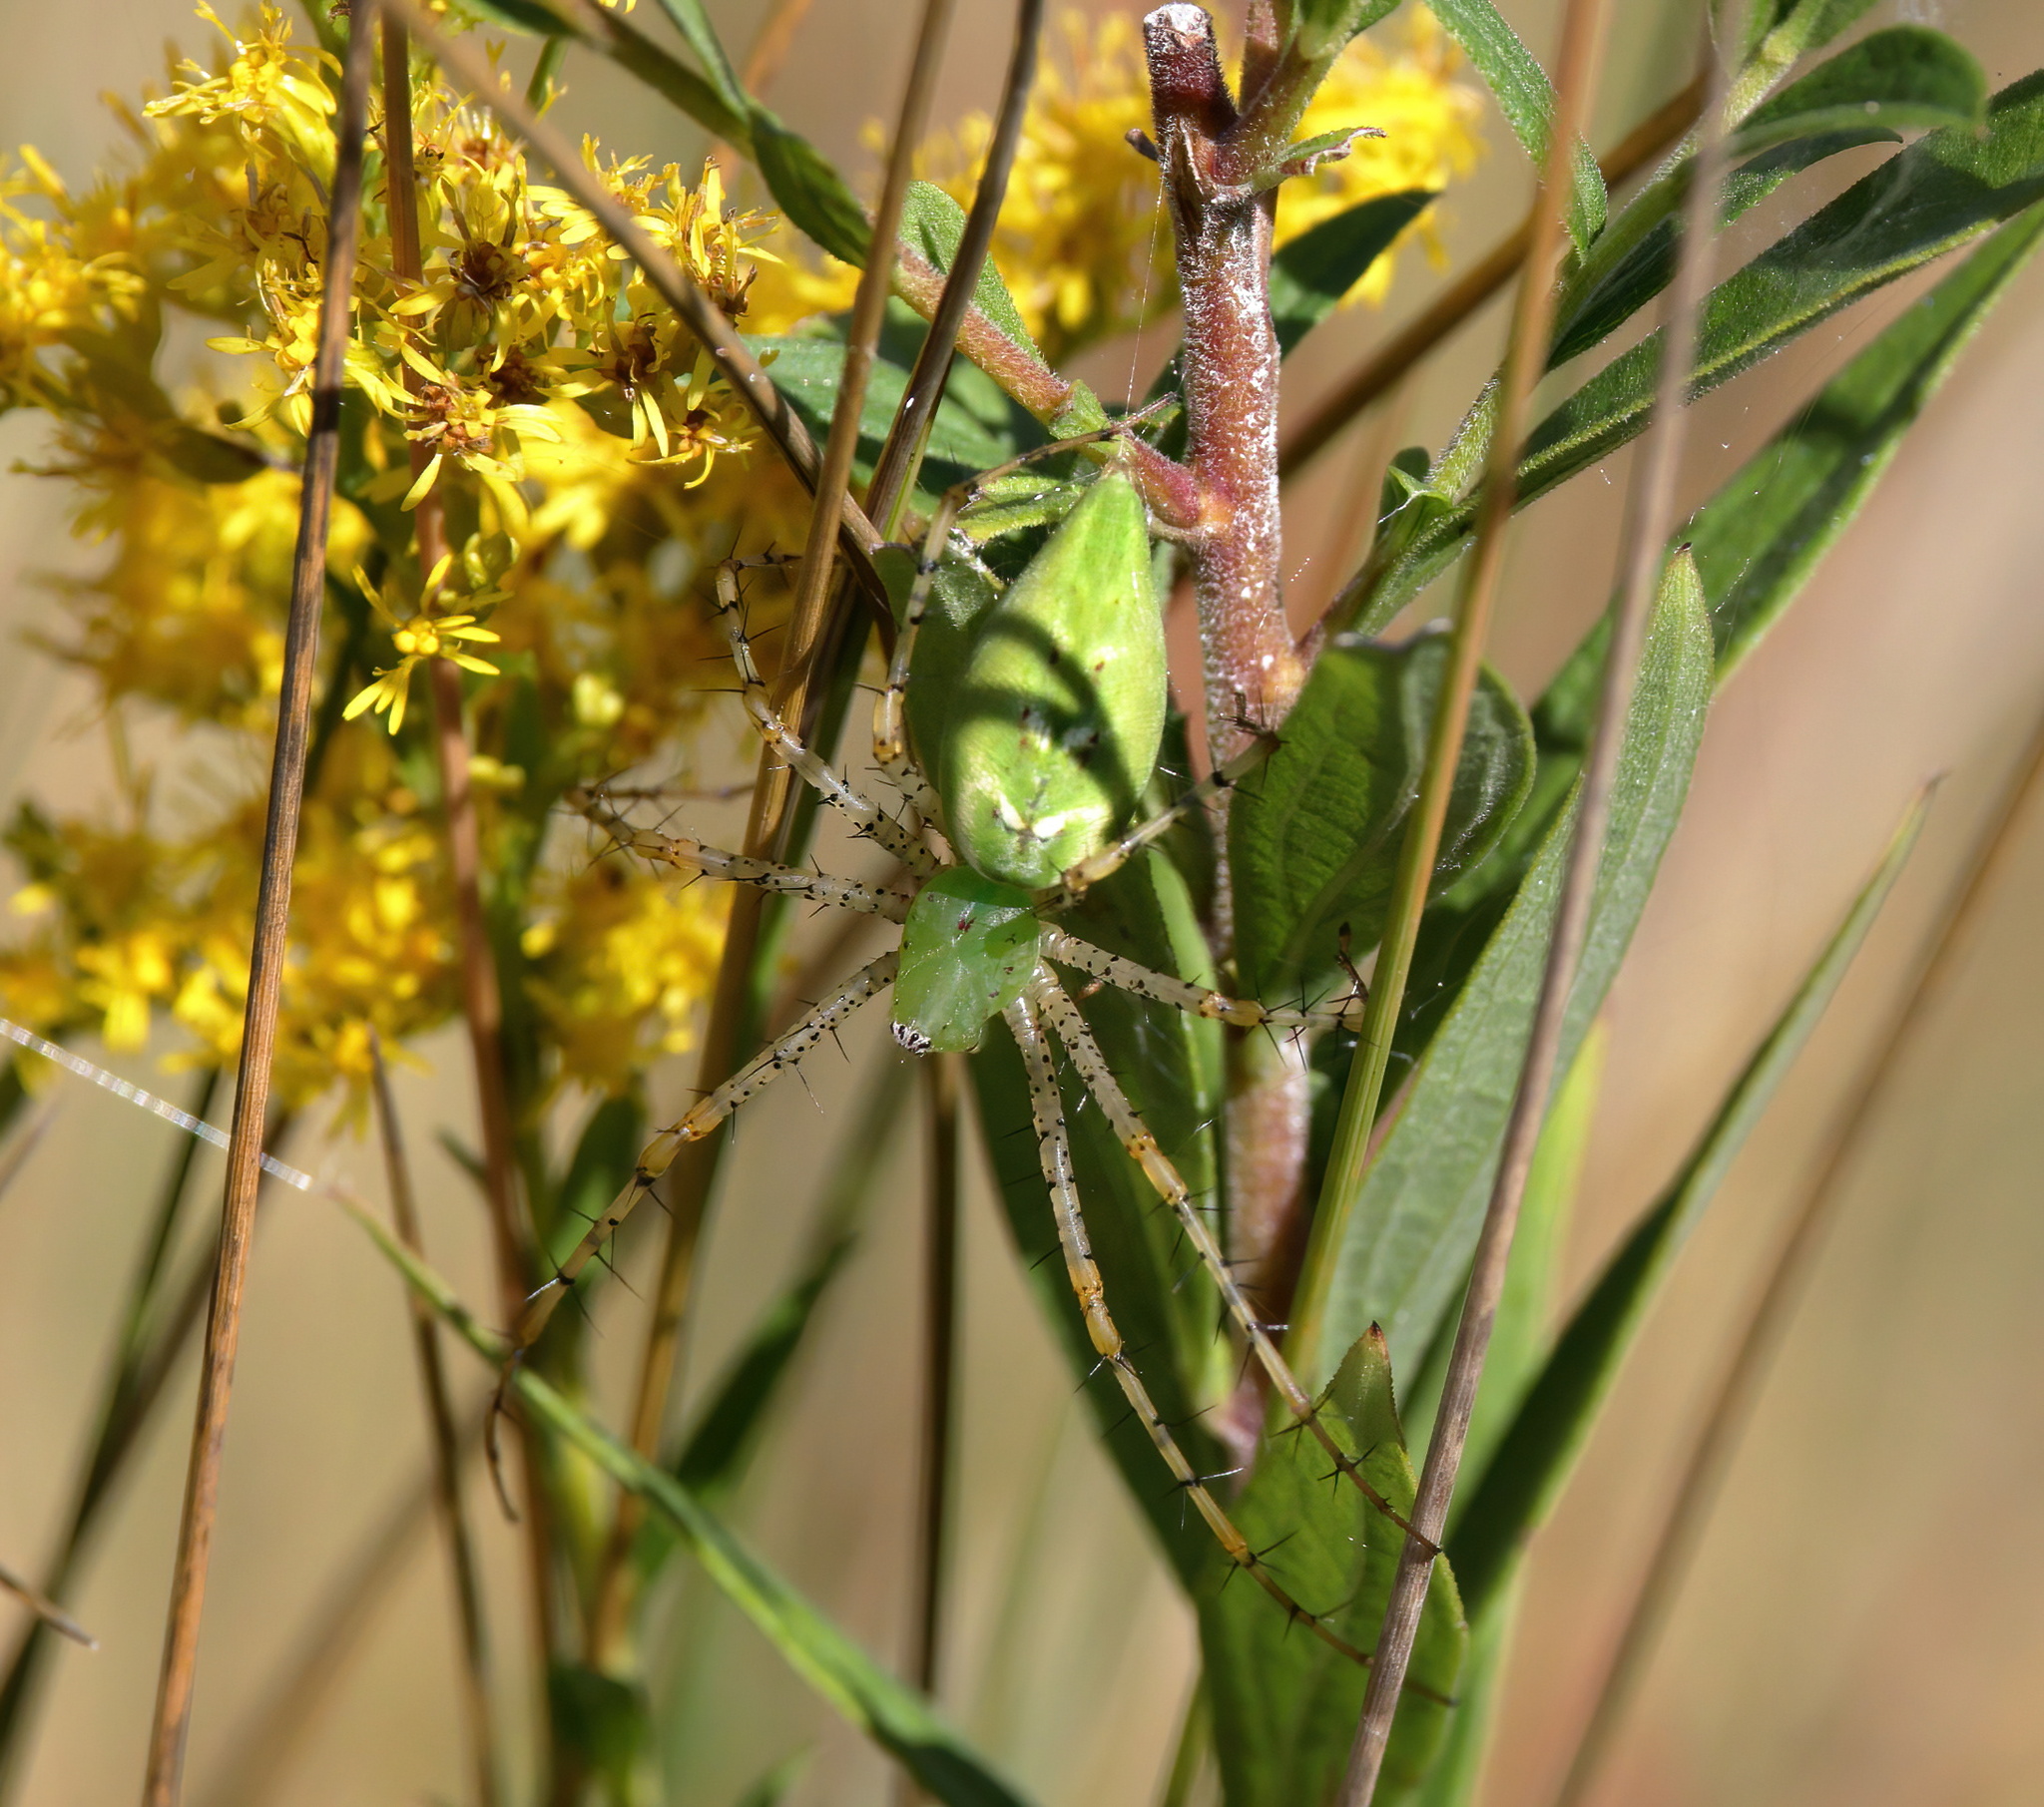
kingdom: Animalia
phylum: Arthropoda
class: Arachnida
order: Araneae
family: Oxyopidae
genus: Peucetia
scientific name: Peucetia viridans
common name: Lynx spiders
